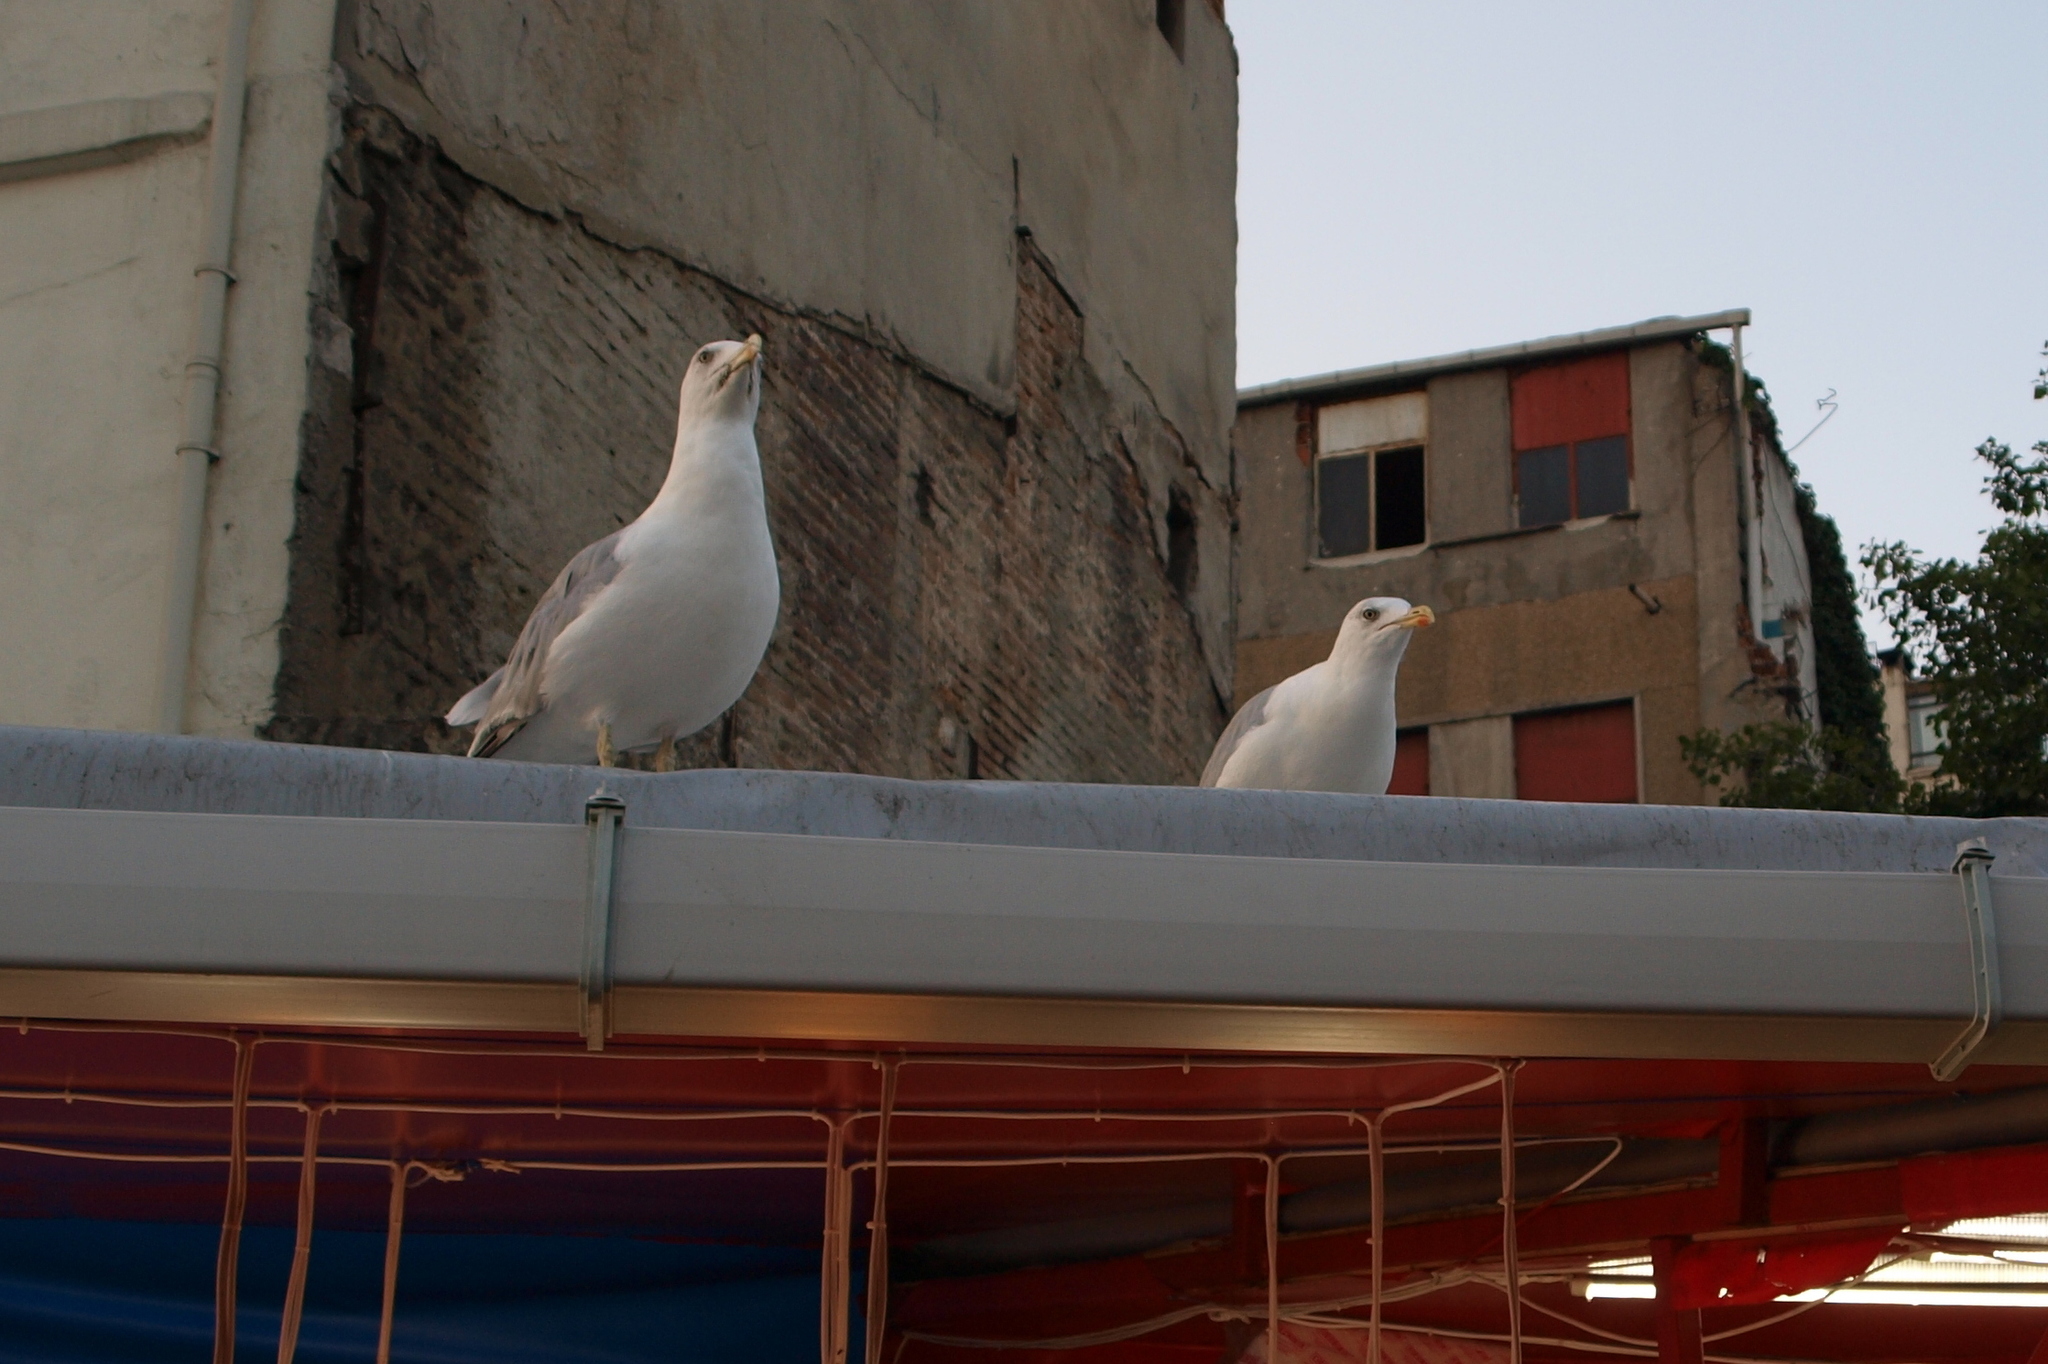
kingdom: Animalia
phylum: Chordata
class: Aves
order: Charadriiformes
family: Laridae
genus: Larus
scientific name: Larus michahellis
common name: Yellow-legged gull
